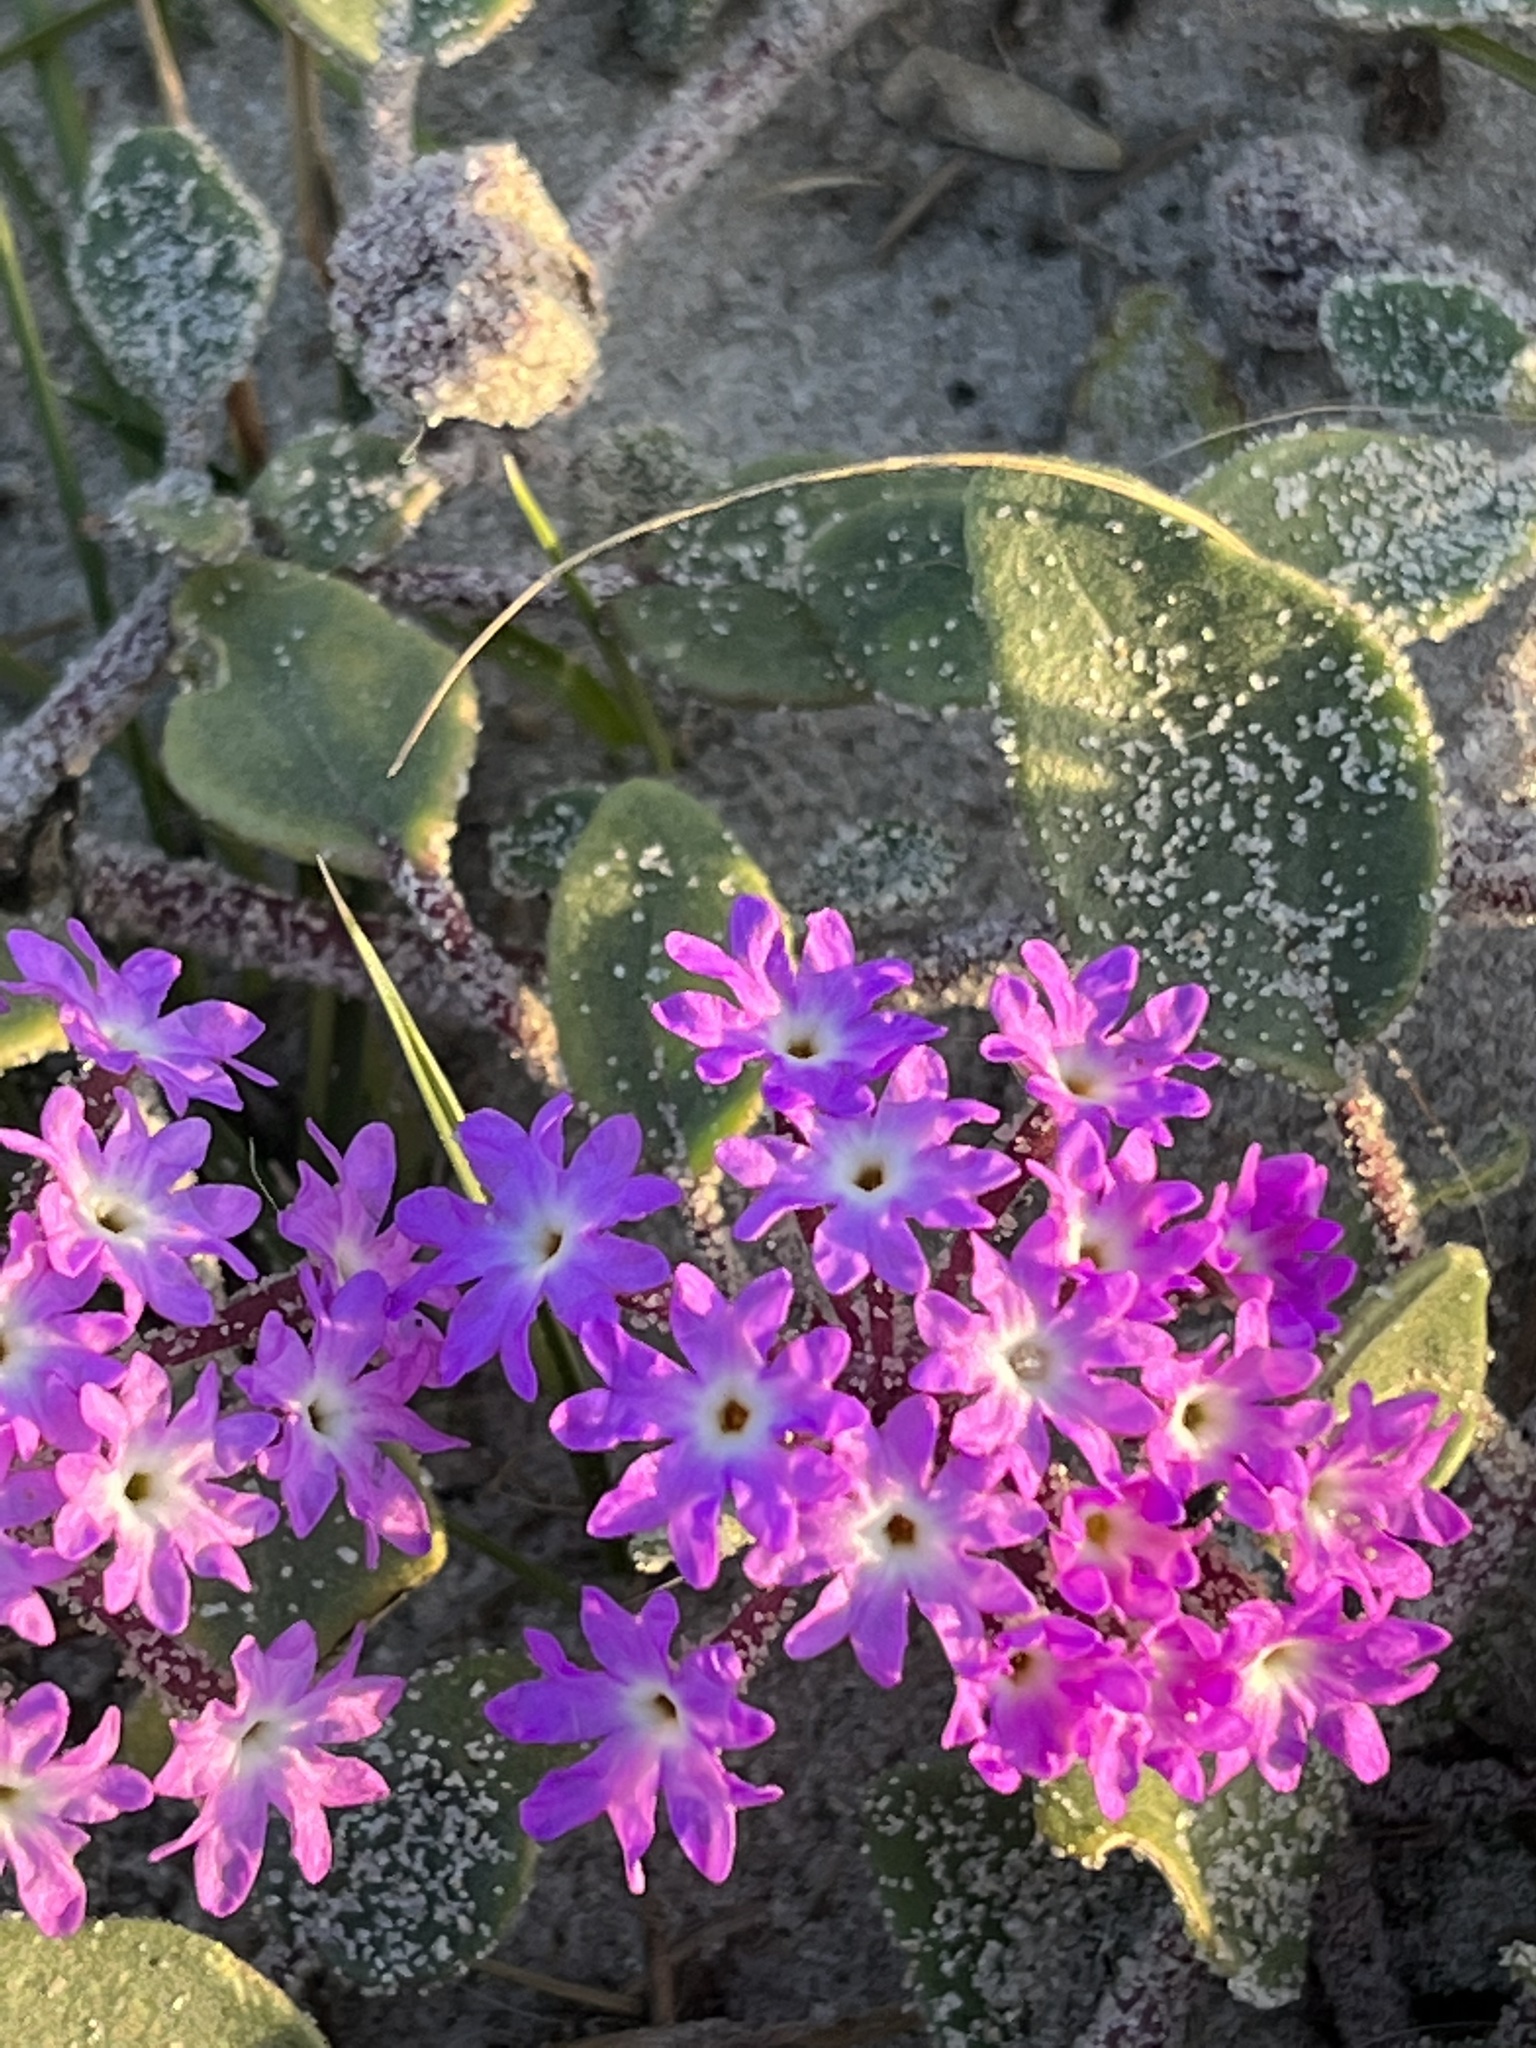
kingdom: Plantae
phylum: Tracheophyta
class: Magnoliopsida
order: Caryophyllales
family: Nyctaginaceae
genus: Abronia
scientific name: Abronia umbellata
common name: Sand-verbena
